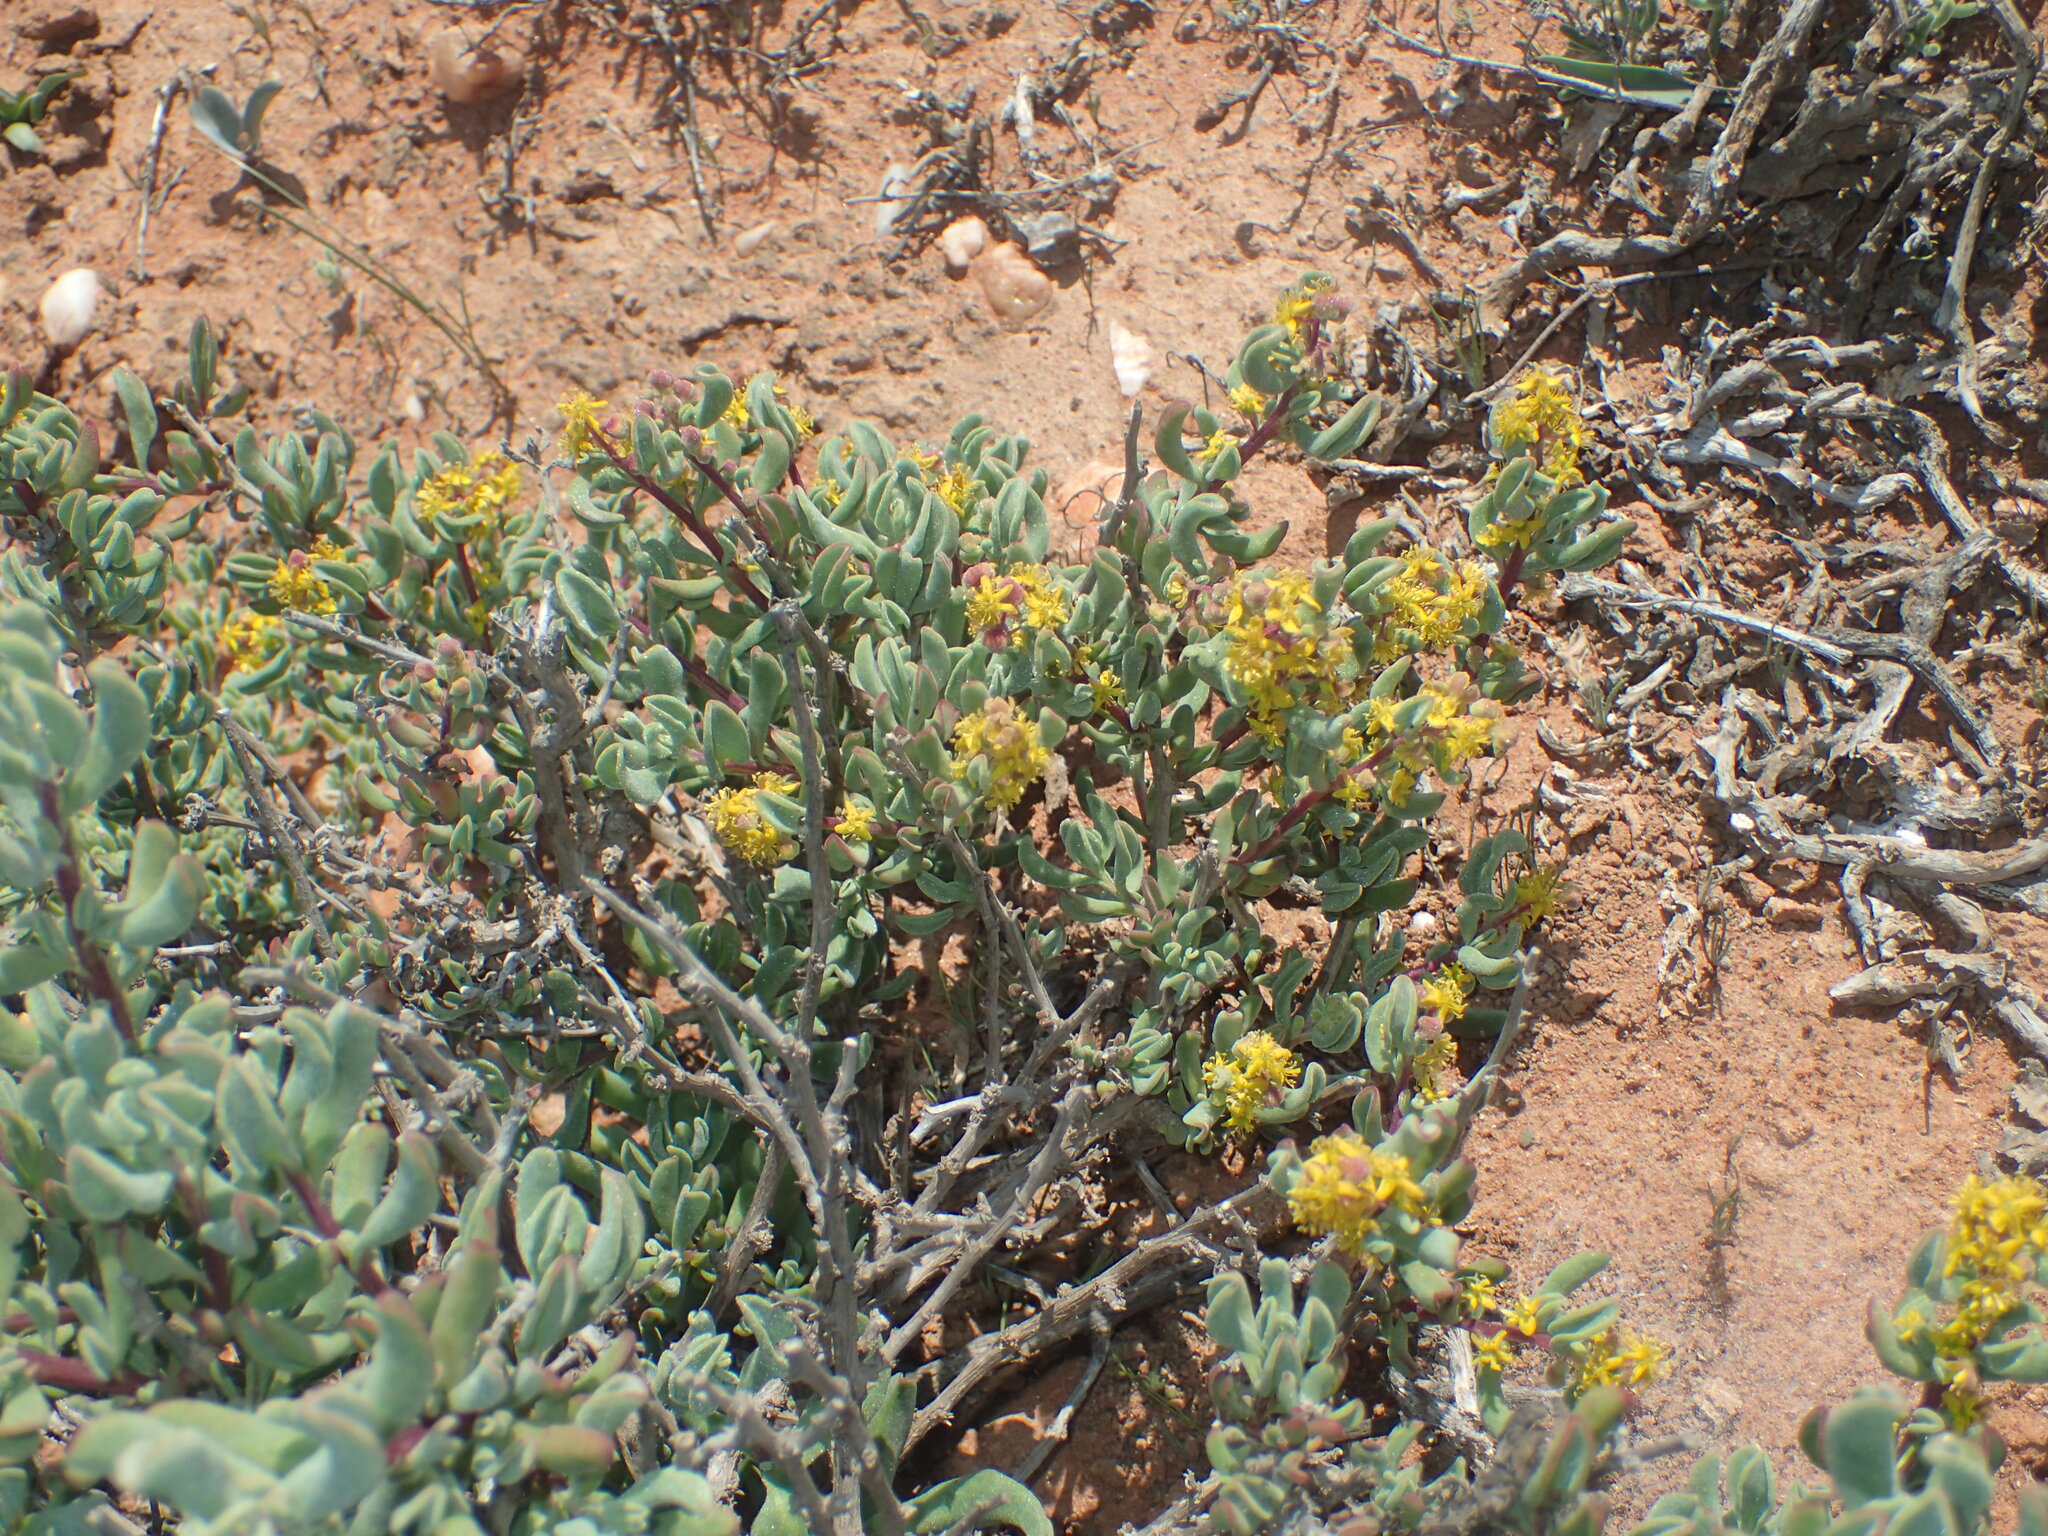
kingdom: Plantae
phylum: Tracheophyta
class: Magnoliopsida
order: Caryophyllales
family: Aizoaceae
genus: Tetragonia
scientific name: Tetragonia fruticosa
